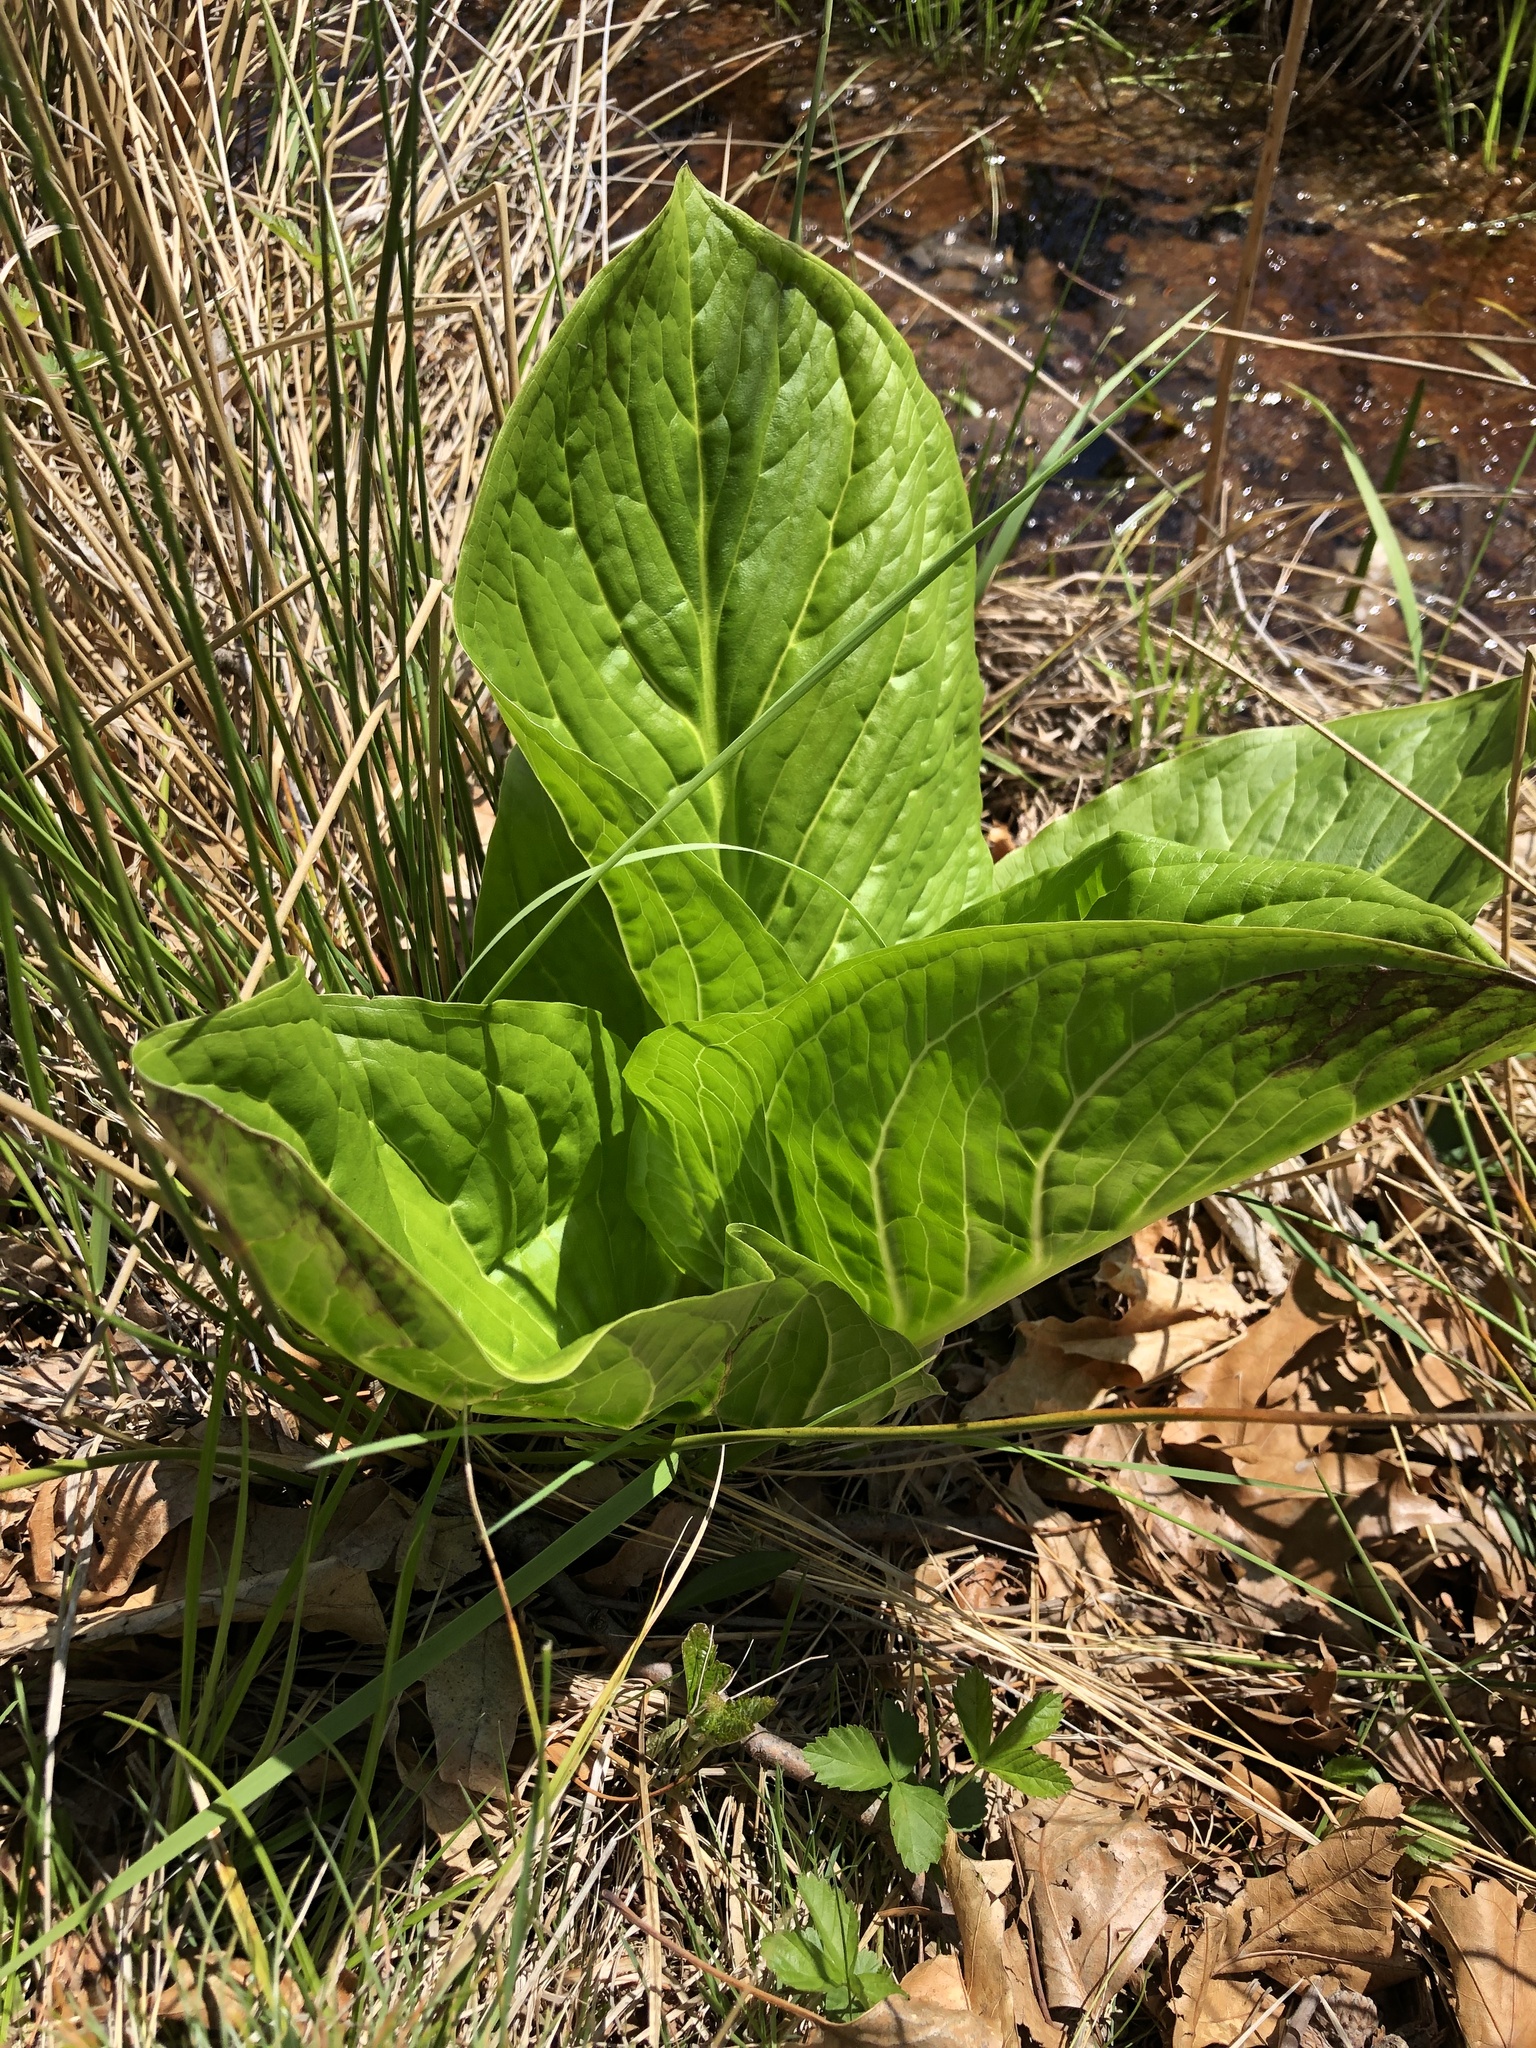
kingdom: Plantae
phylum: Tracheophyta
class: Liliopsida
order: Alismatales
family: Araceae
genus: Symplocarpus
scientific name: Symplocarpus foetidus
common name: Eastern skunk cabbage
